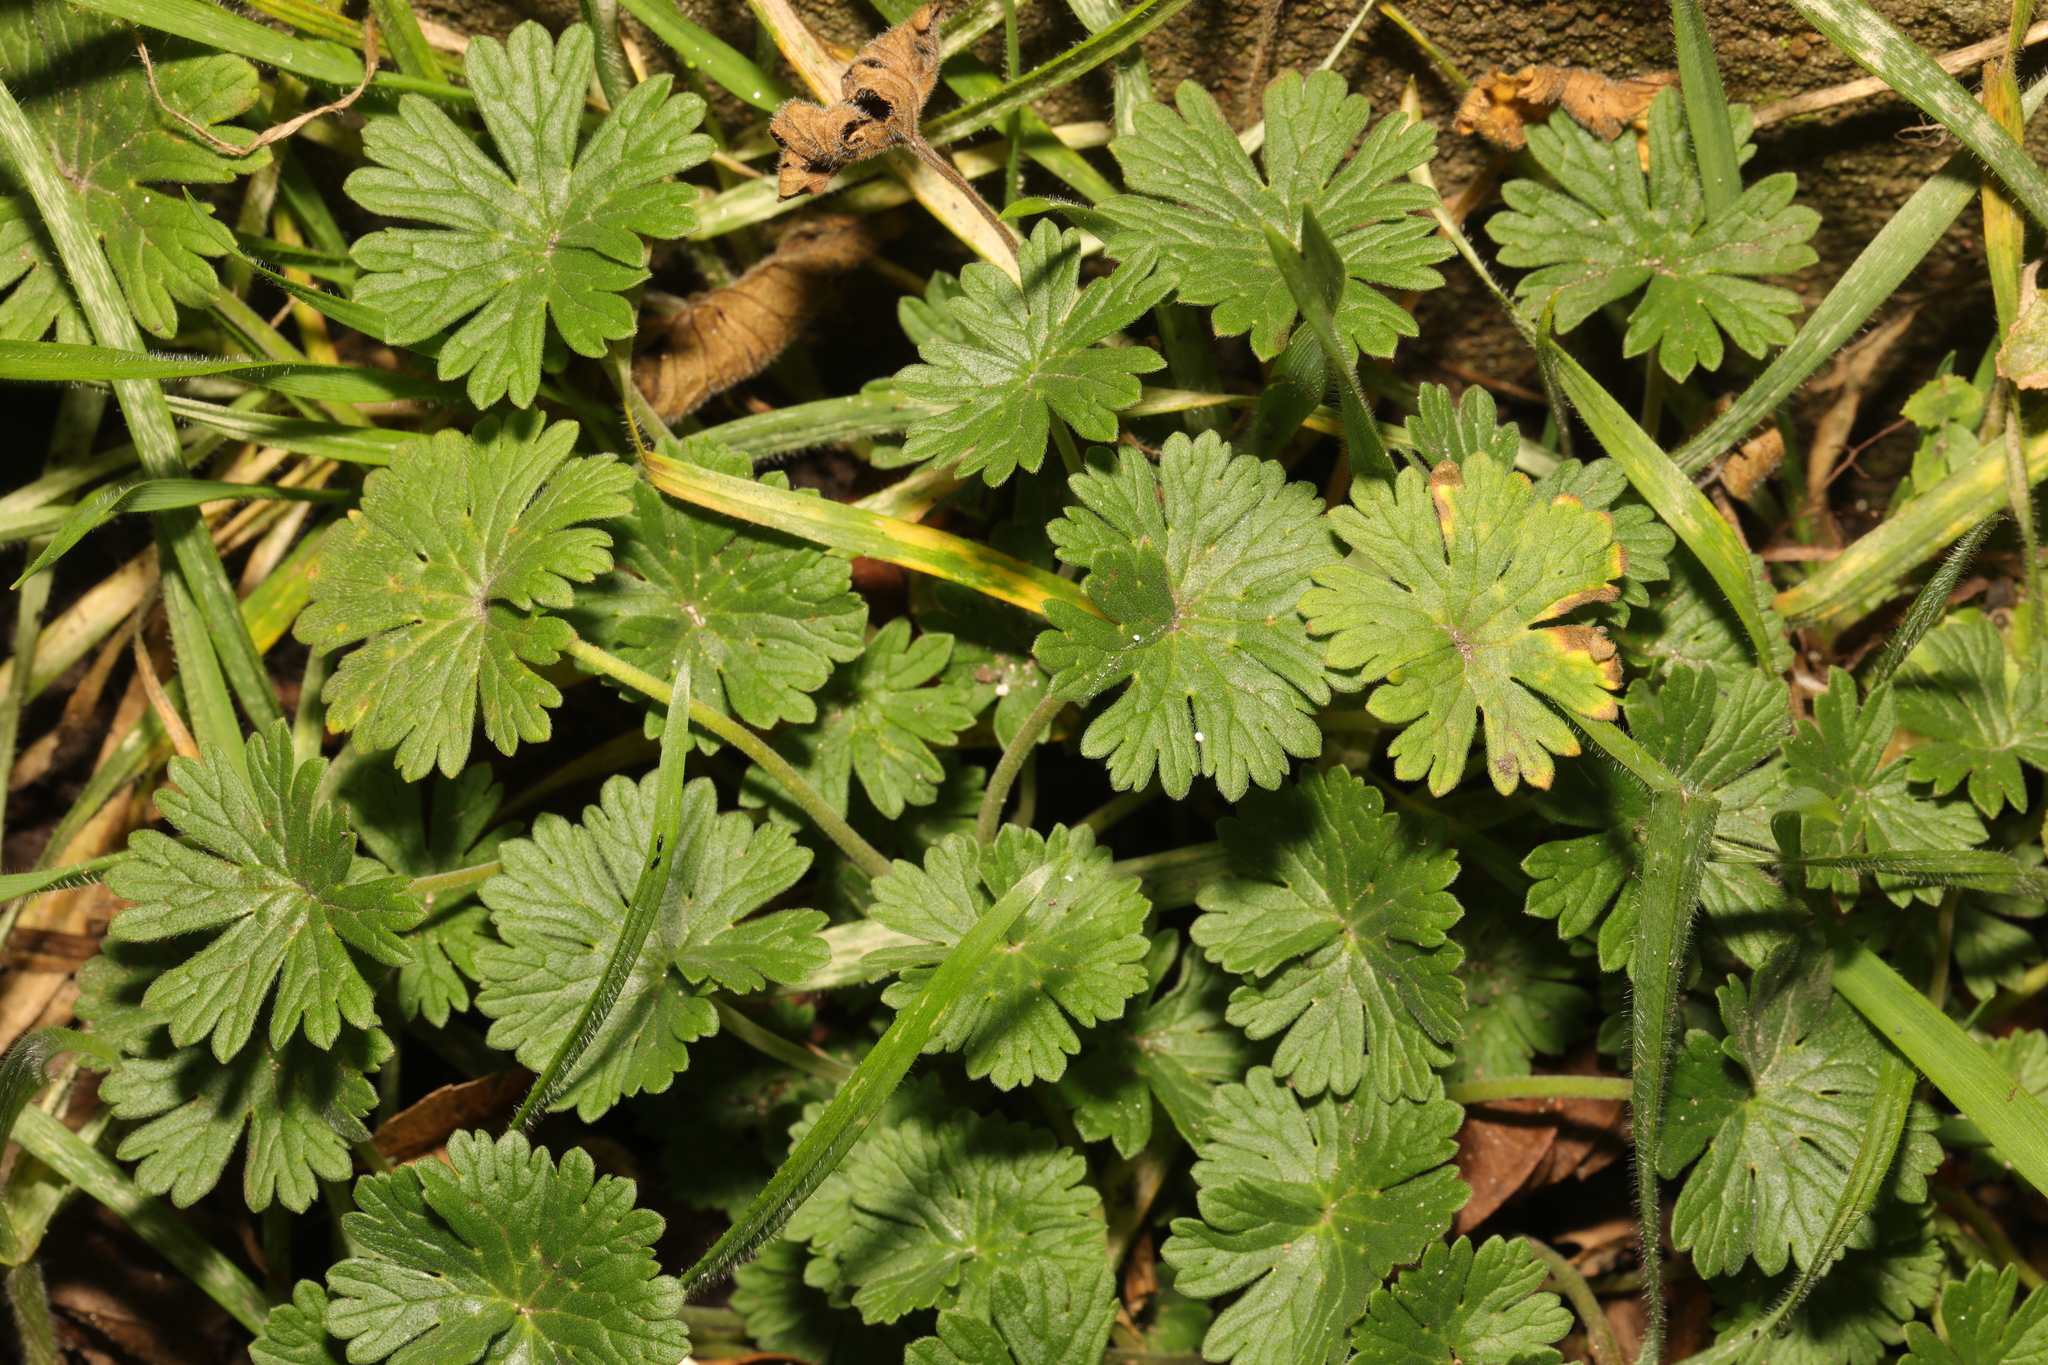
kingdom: Plantae
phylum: Tracheophyta
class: Magnoliopsida
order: Geraniales
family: Geraniaceae
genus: Geranium
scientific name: Geranium molle
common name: Dove's-foot crane's-bill
